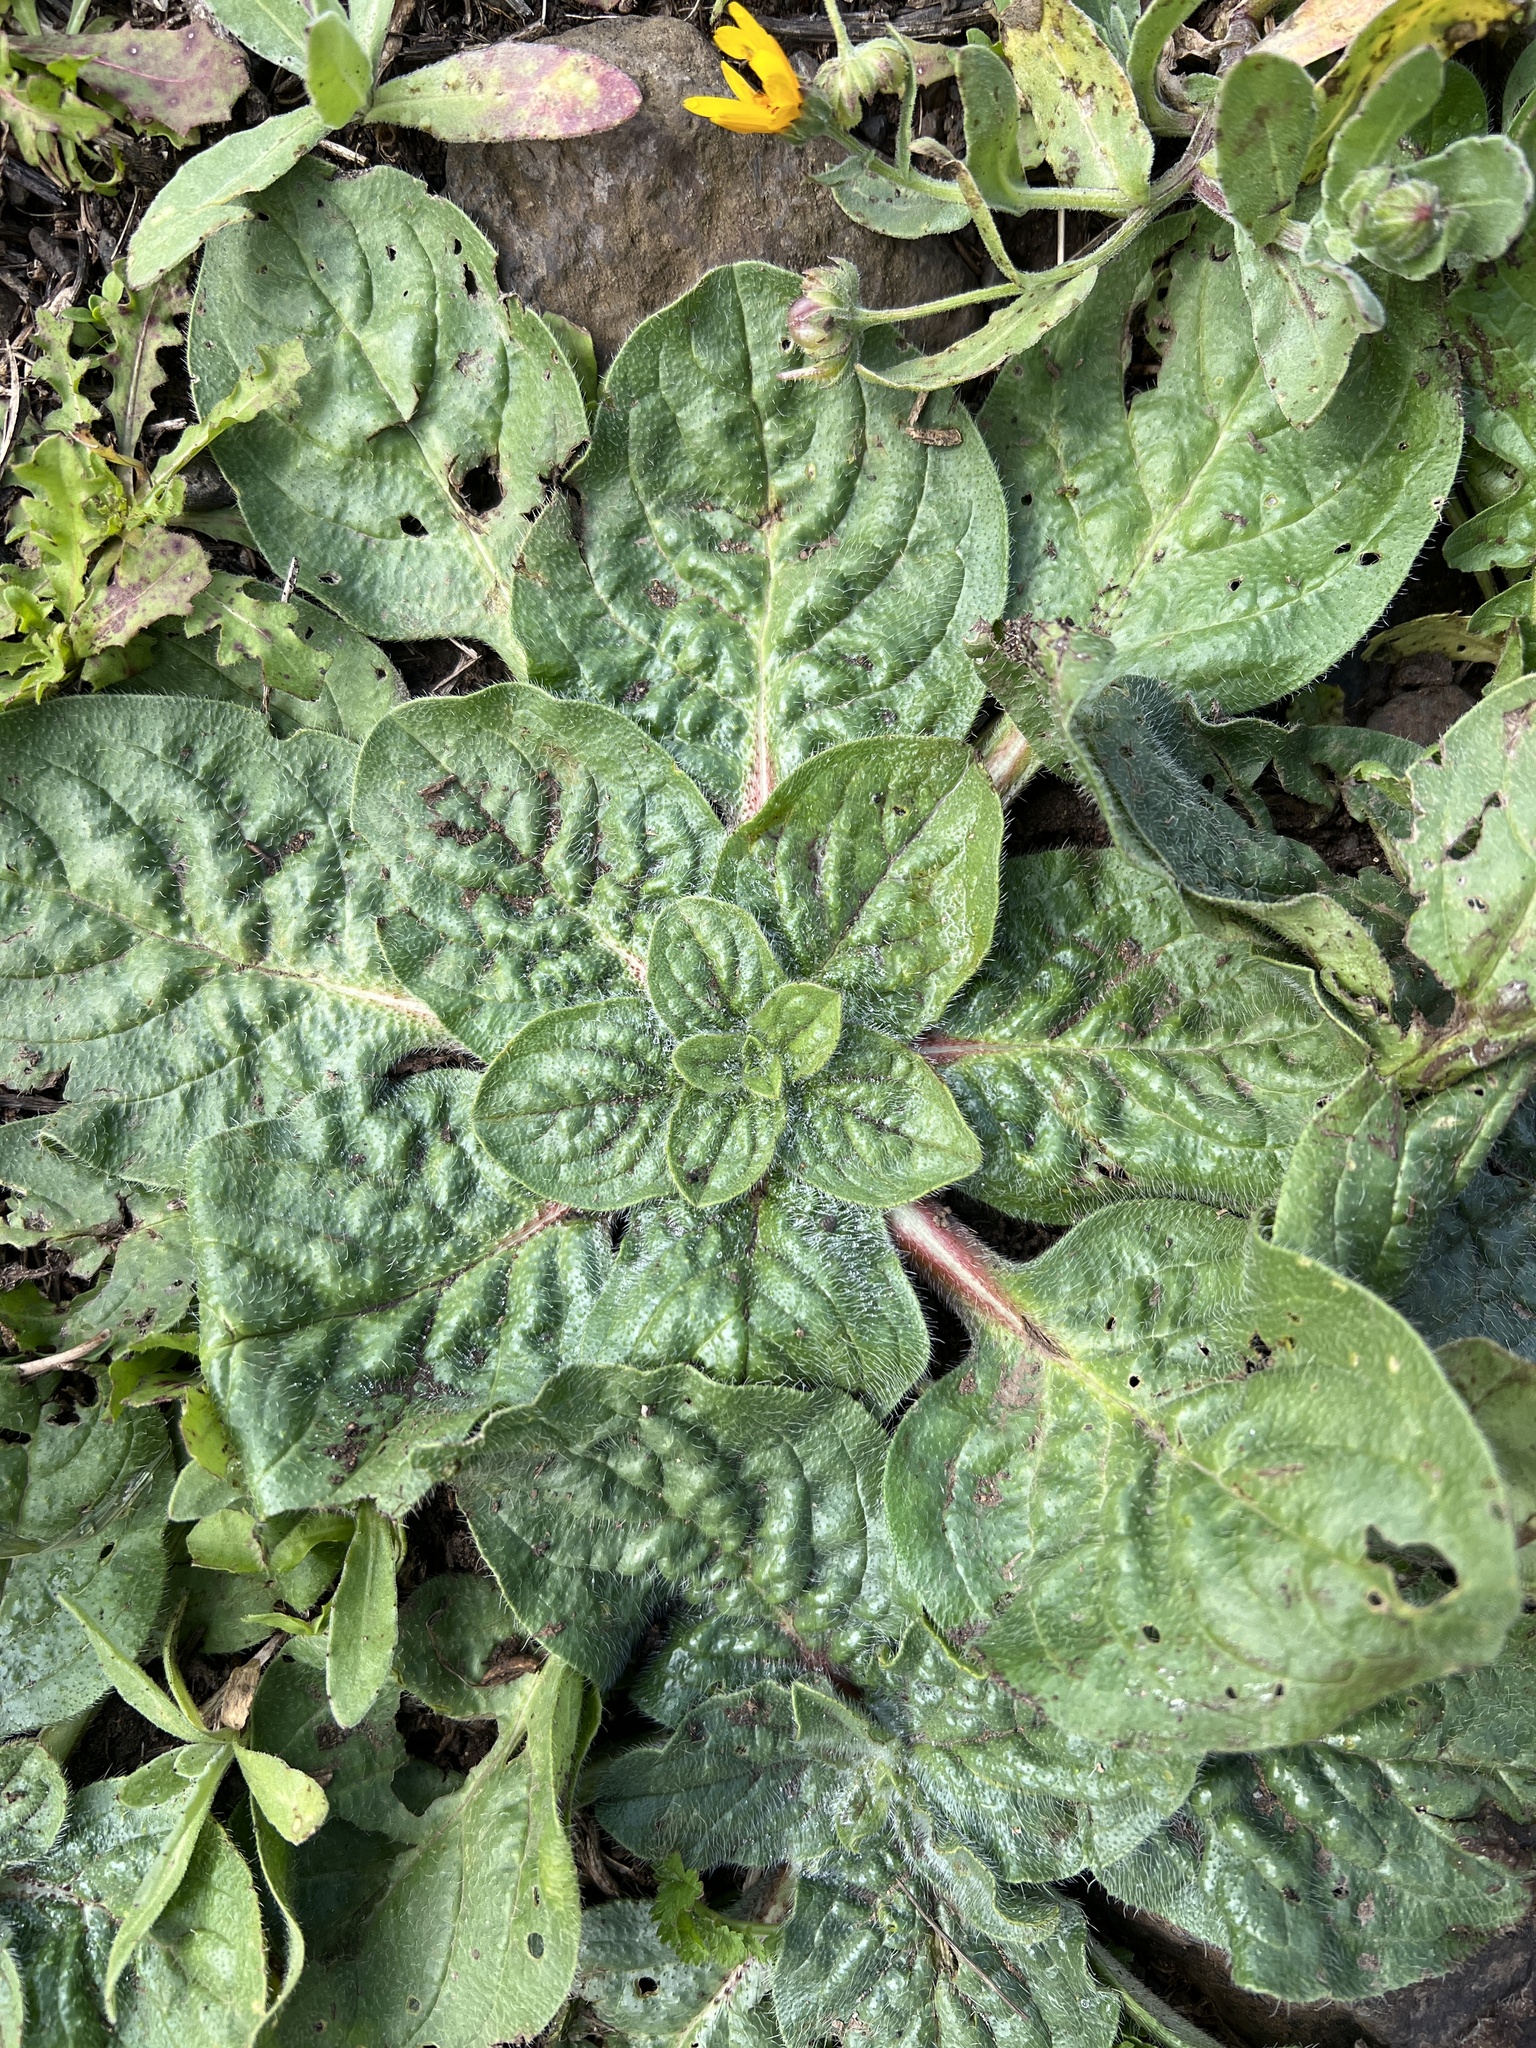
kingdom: Plantae
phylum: Tracheophyta
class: Magnoliopsida
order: Boraginales
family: Boraginaceae
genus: Echium
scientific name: Echium plantagineum
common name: Purple viper's-bugloss
